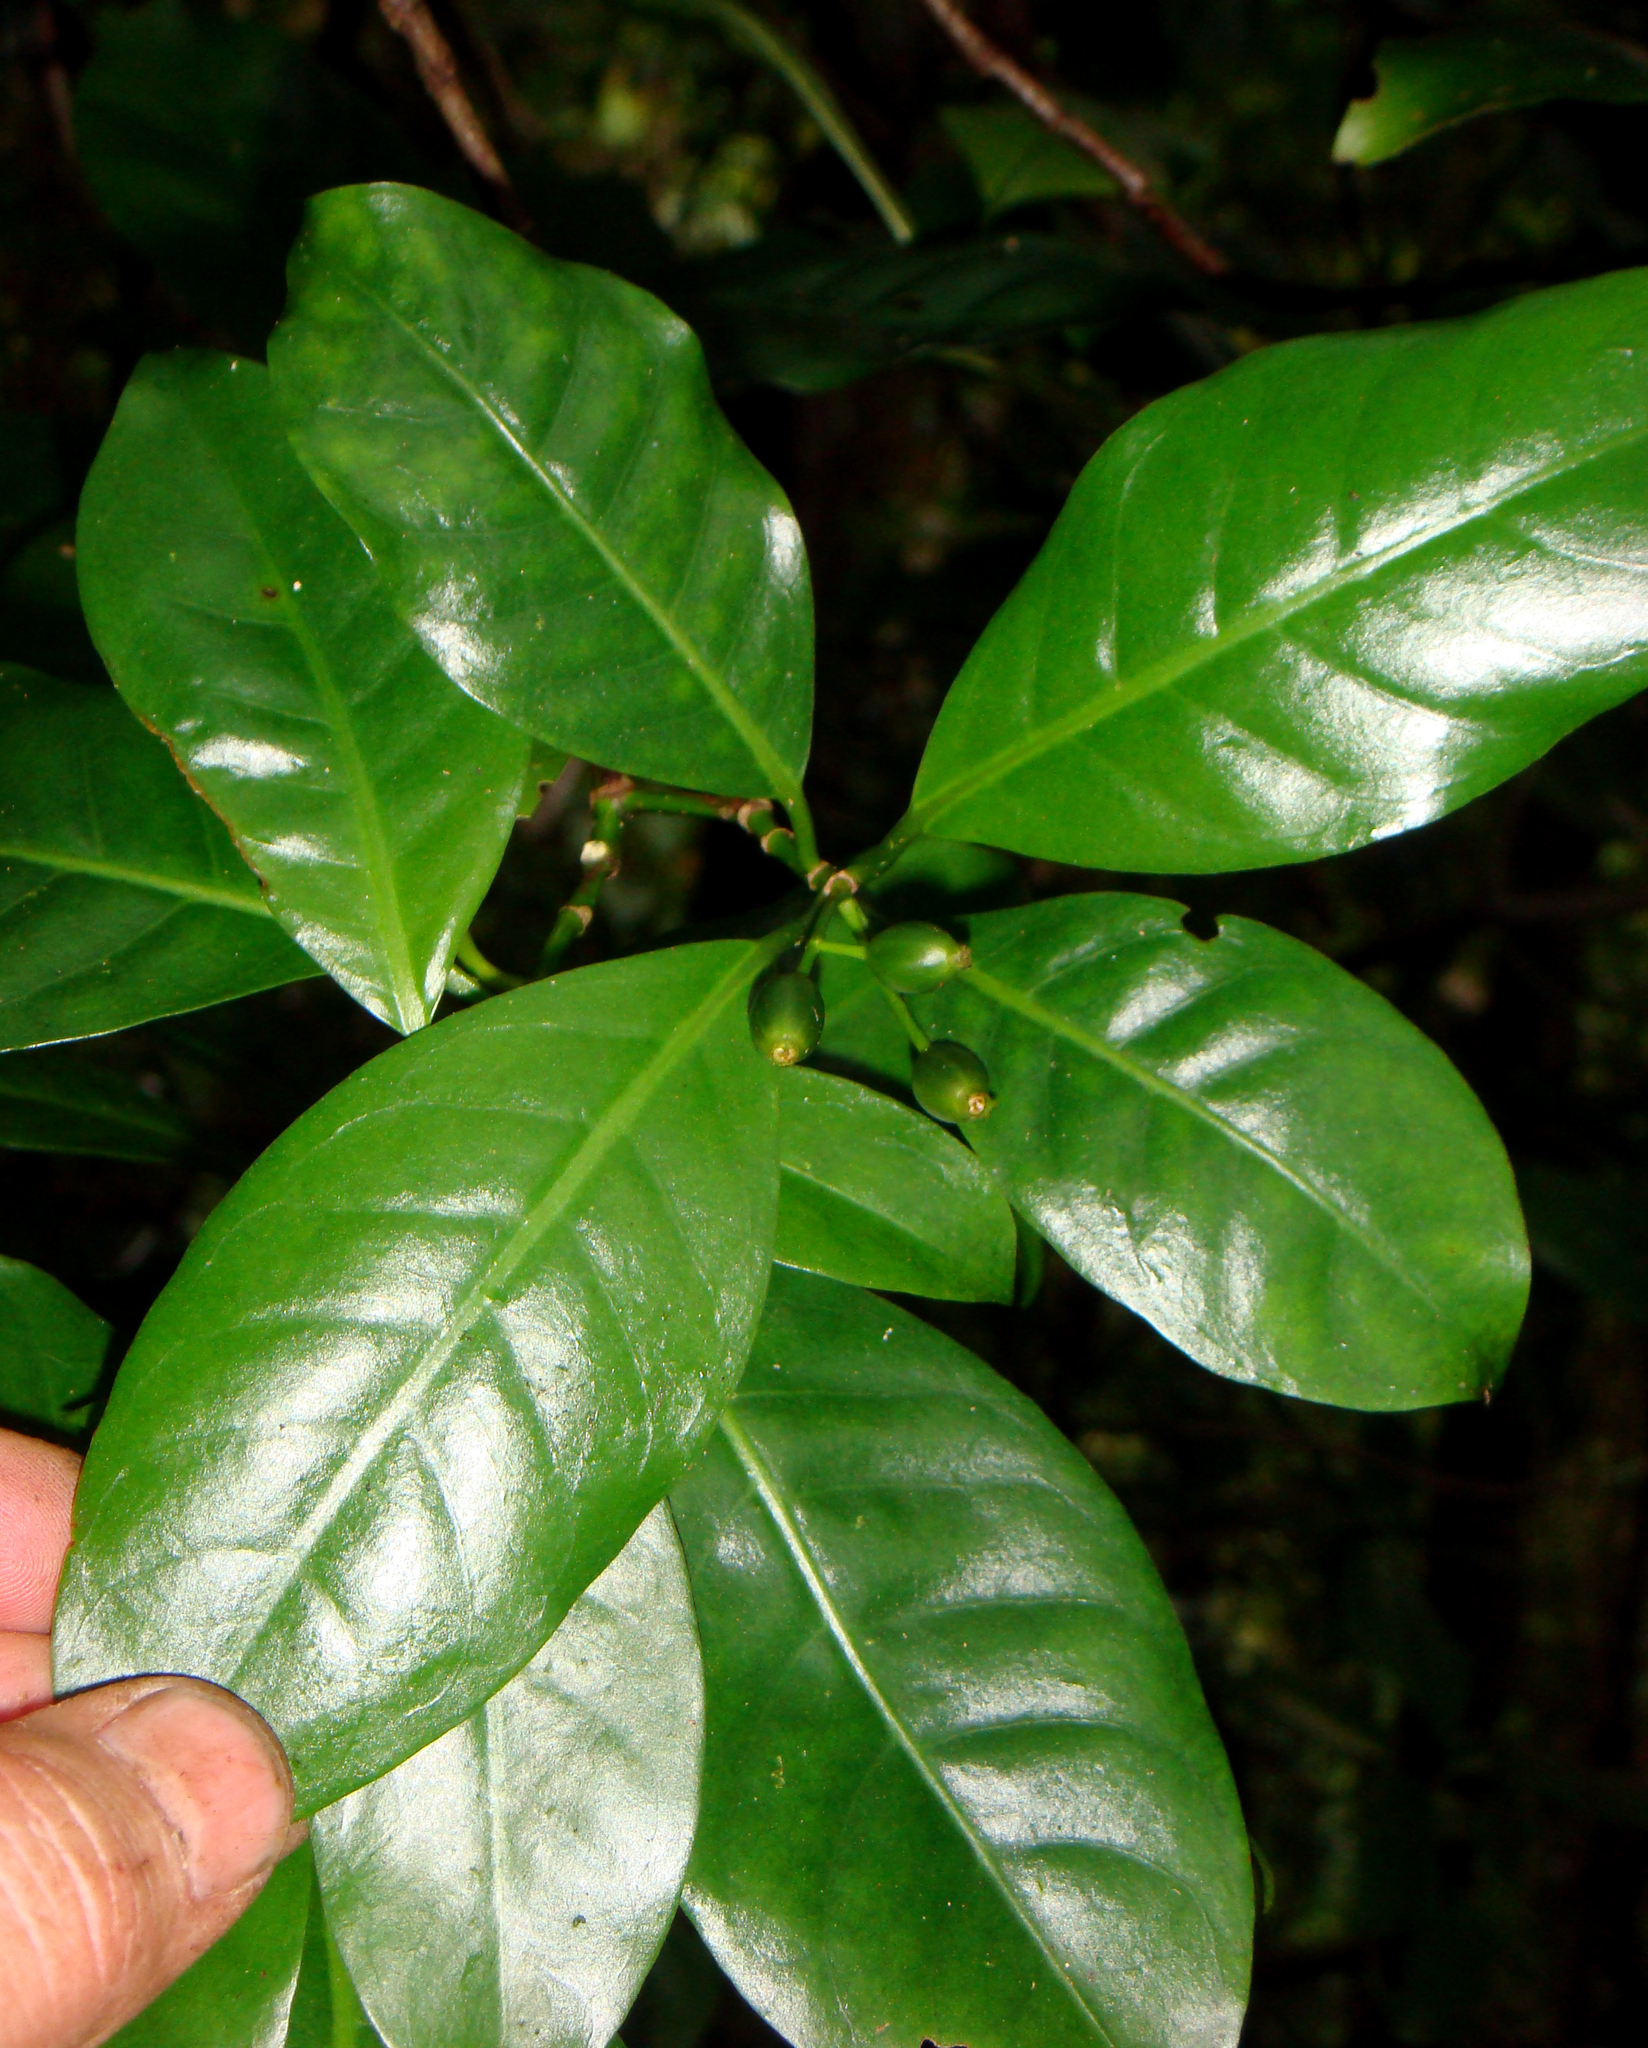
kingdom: Plantae
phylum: Tracheophyta
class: Magnoliopsida
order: Gentianales
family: Rubiaceae
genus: Psychotria
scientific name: Psychotria whistleri
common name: Rarotonga psychotria
